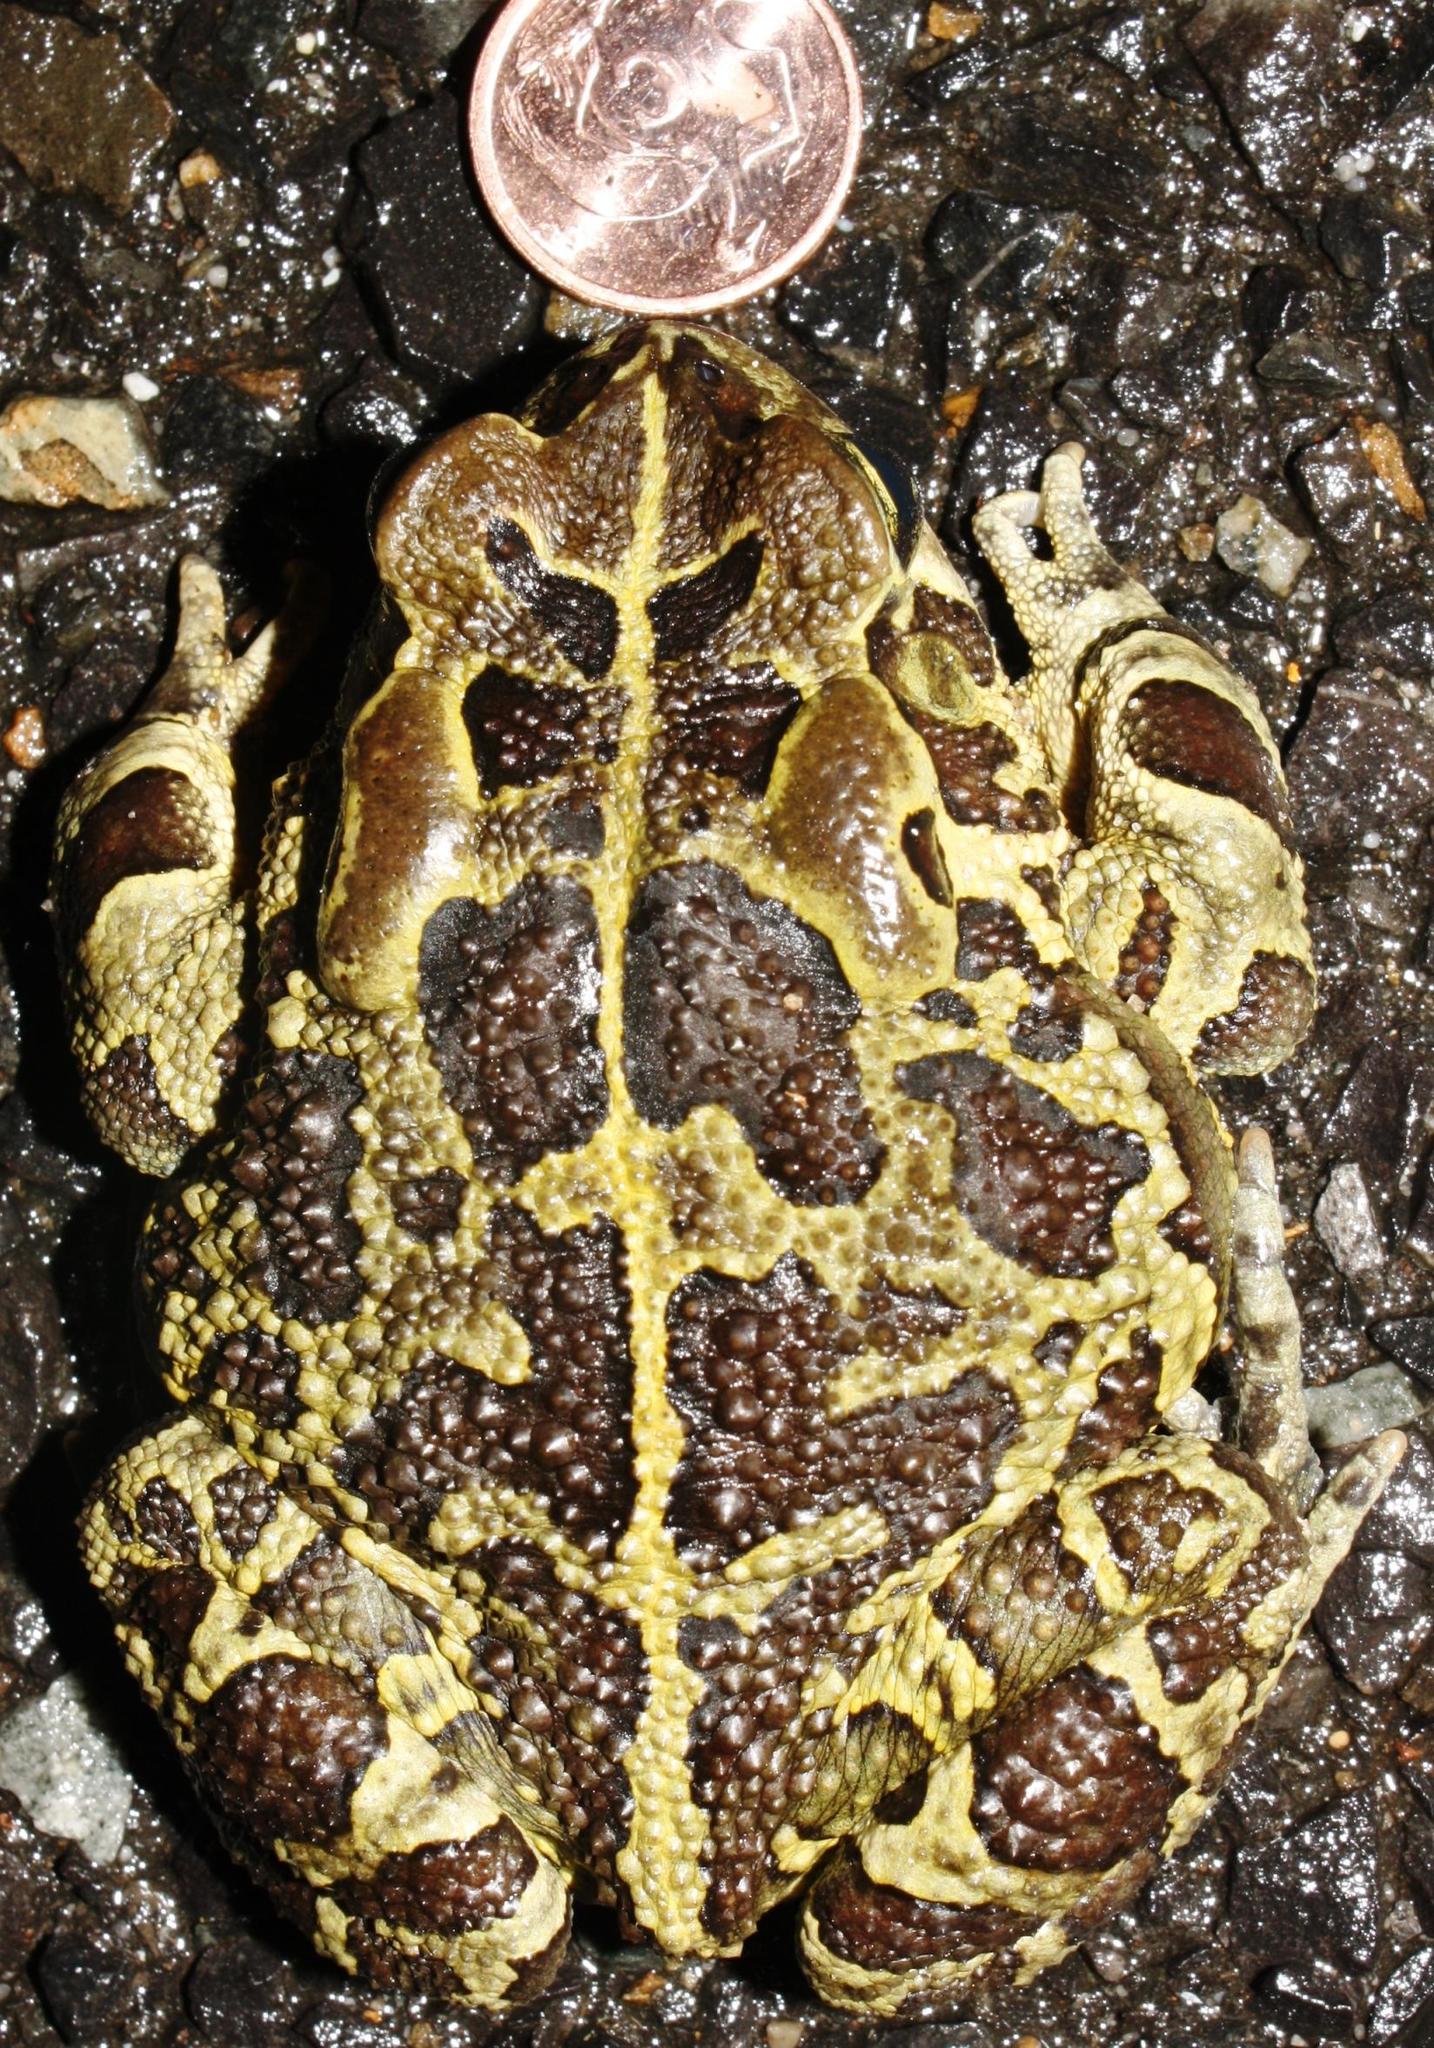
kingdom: Animalia
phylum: Chordata
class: Amphibia
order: Anura
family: Bufonidae
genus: Sclerophrys
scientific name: Sclerophrys pantherina
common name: Panther toad
